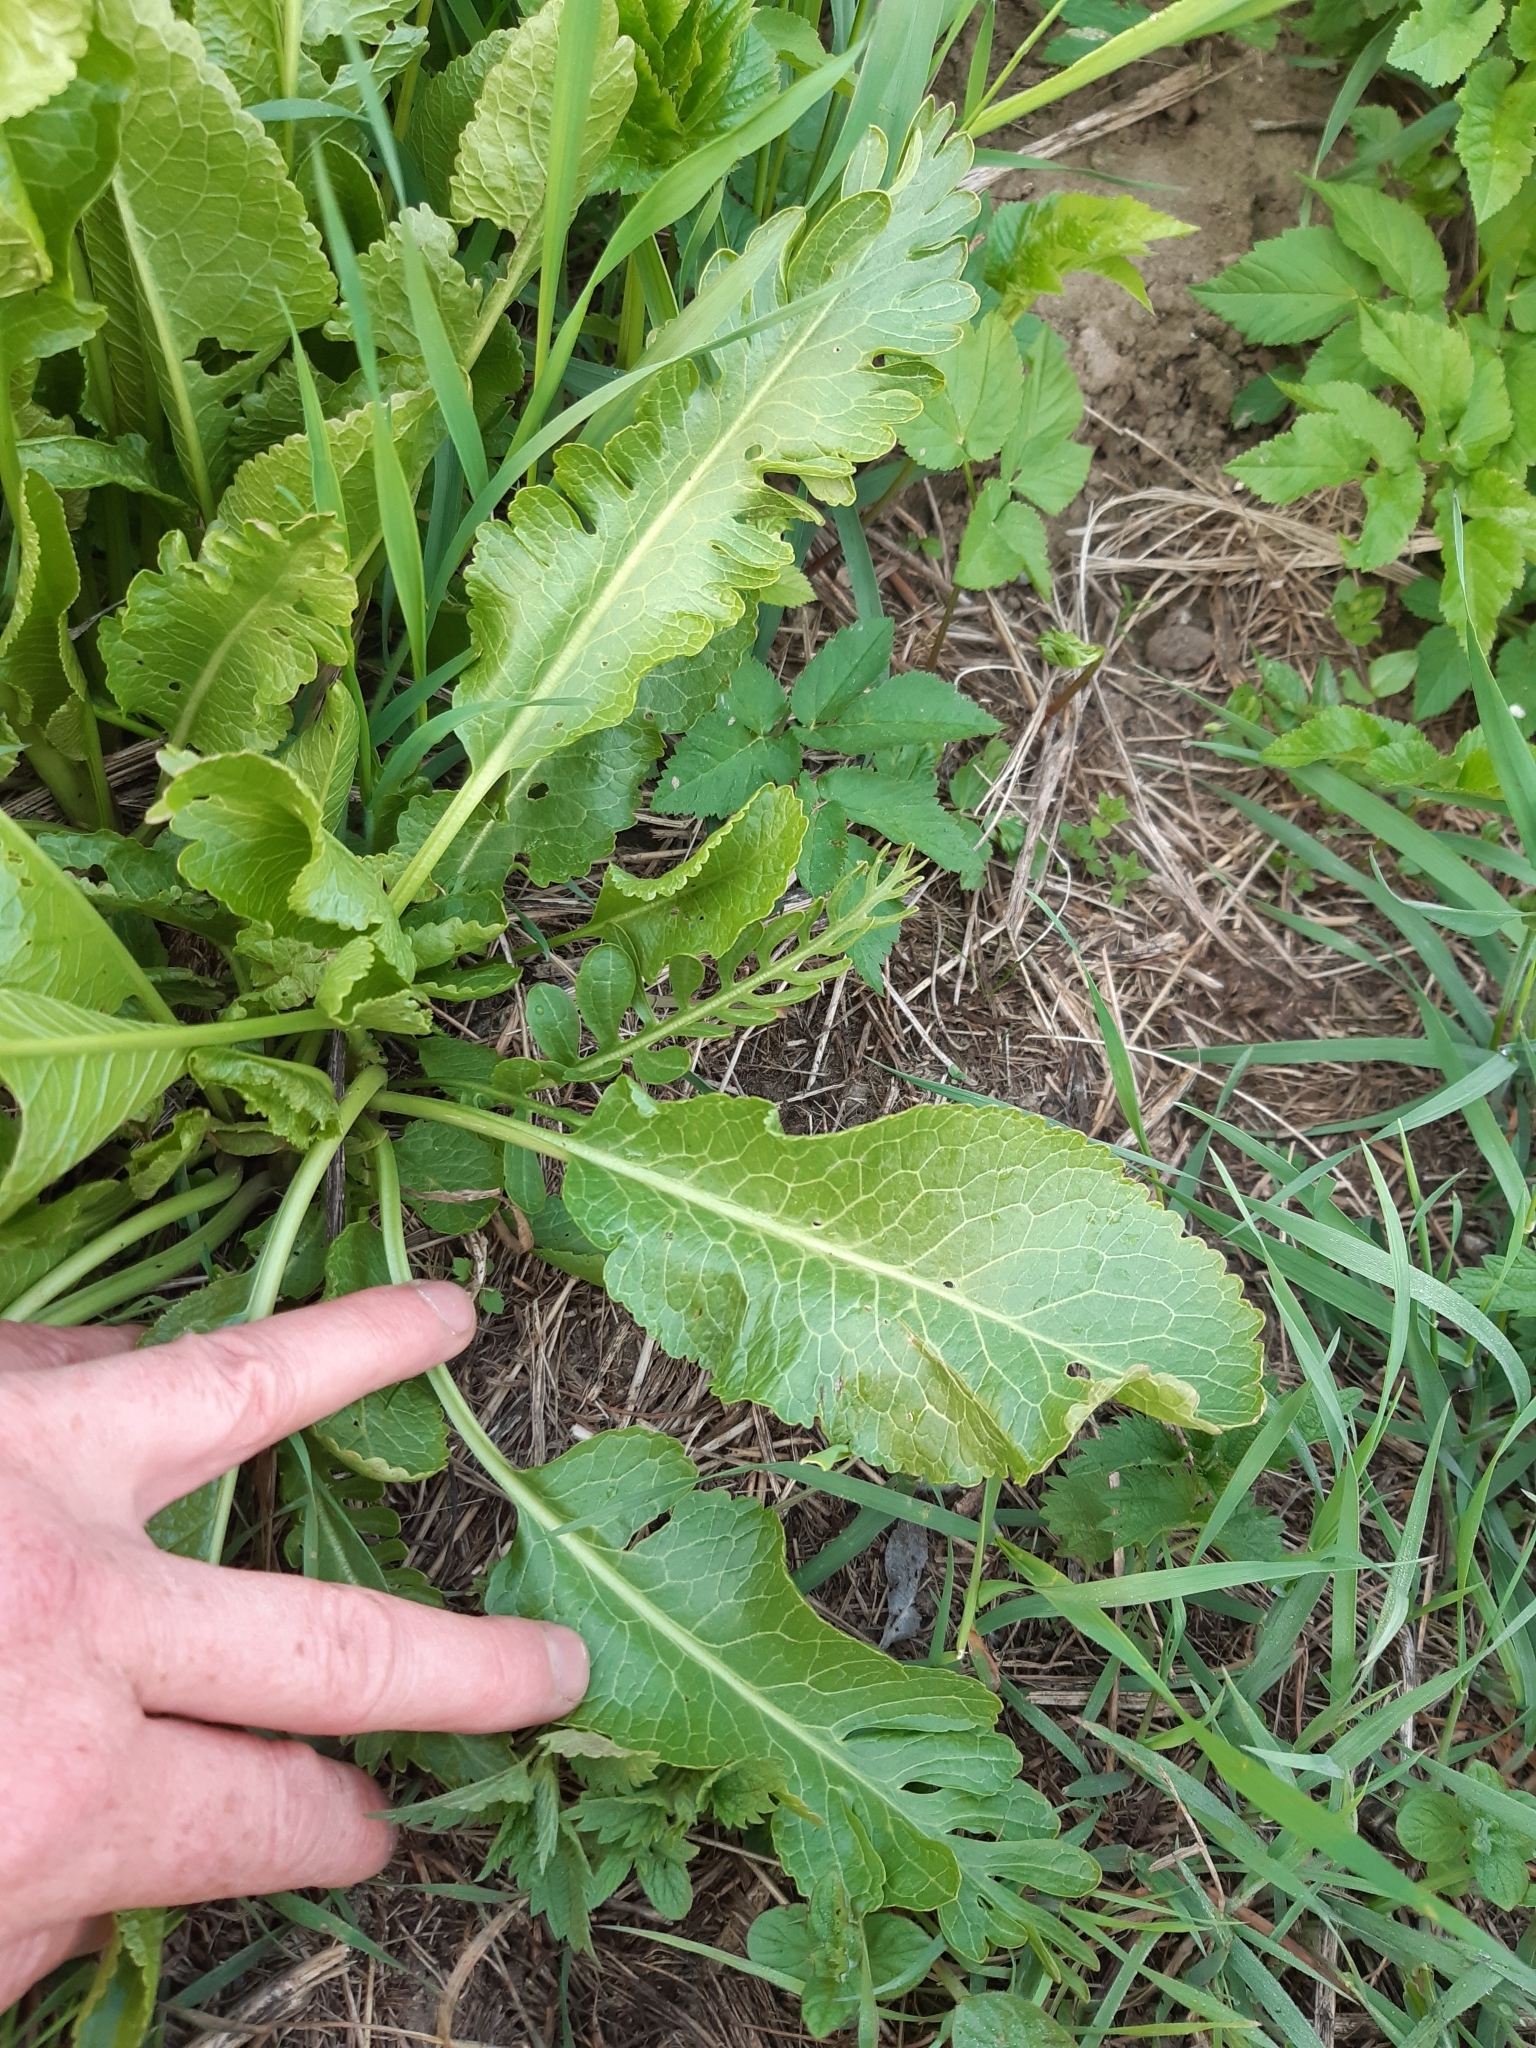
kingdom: Plantae
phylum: Tracheophyta
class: Magnoliopsida
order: Brassicales
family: Brassicaceae
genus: Armoracia
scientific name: Armoracia rusticana
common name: Horseradish
